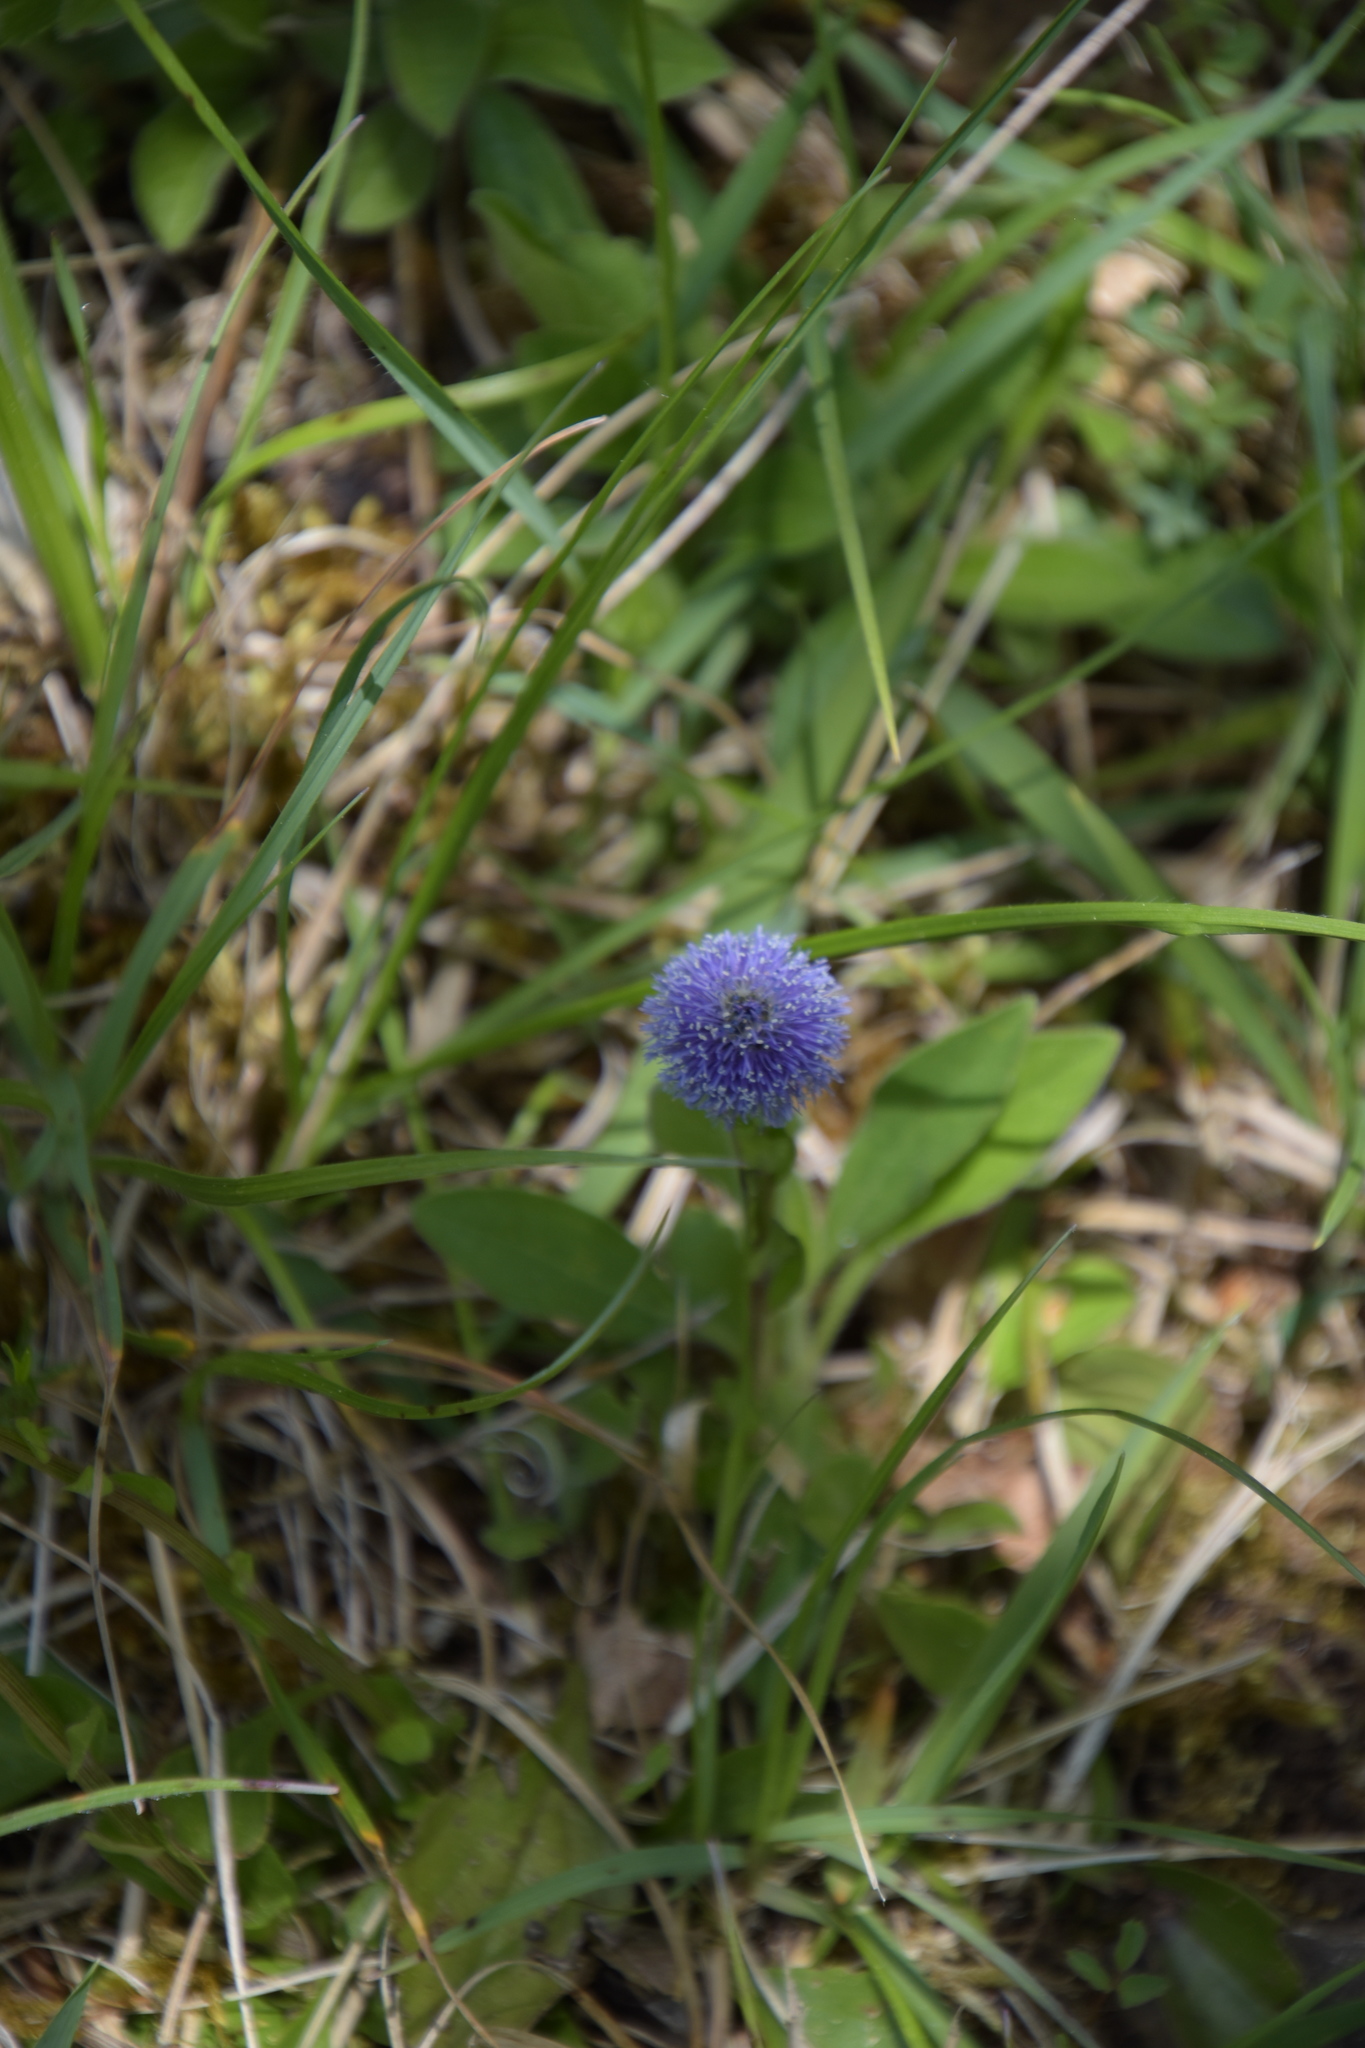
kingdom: Plantae
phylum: Tracheophyta
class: Magnoliopsida
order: Lamiales
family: Plantaginaceae
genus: Globularia
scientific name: Globularia bisnagarica
